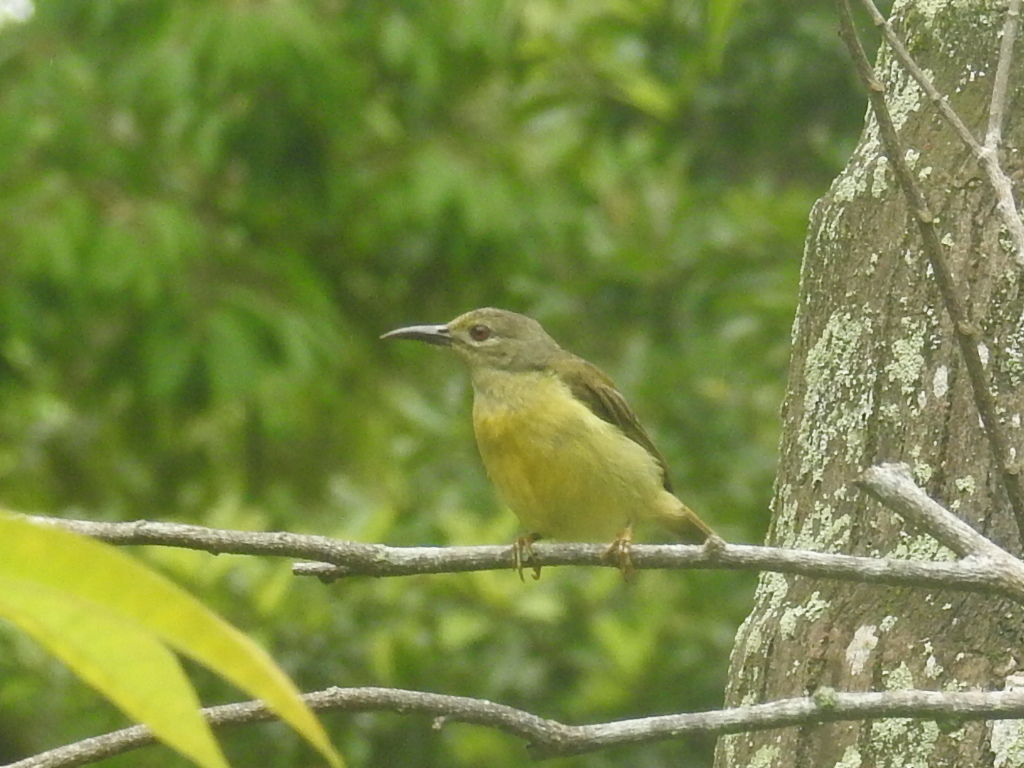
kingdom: Animalia
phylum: Chordata
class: Aves
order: Passeriformes
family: Nectariniidae
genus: Anthreptes
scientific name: Anthreptes malacensis
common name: Brown-throated sunbird
